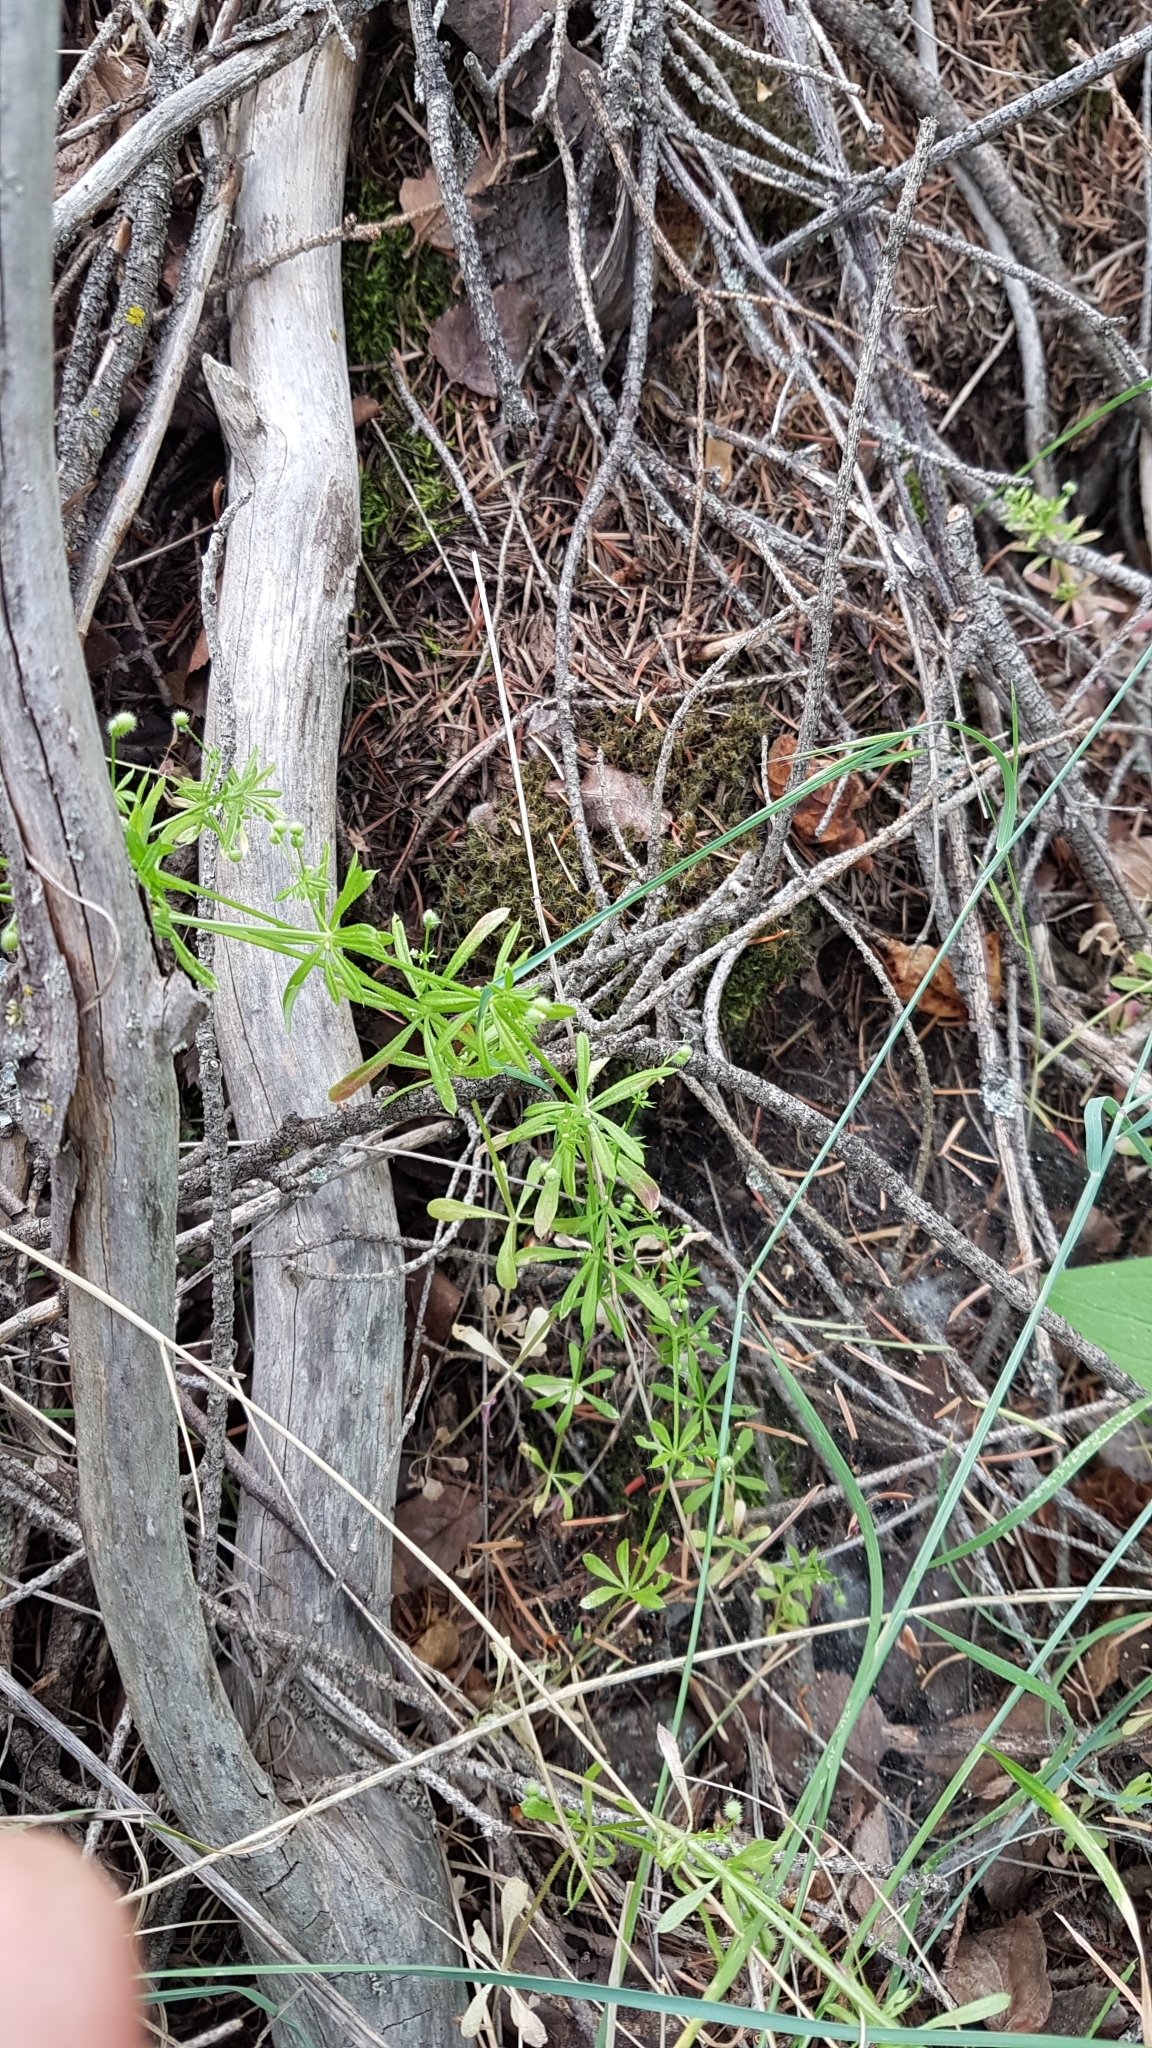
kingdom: Plantae
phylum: Tracheophyta
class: Magnoliopsida
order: Gentianales
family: Rubiaceae
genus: Galium
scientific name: Galium aparine
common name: Cleavers
